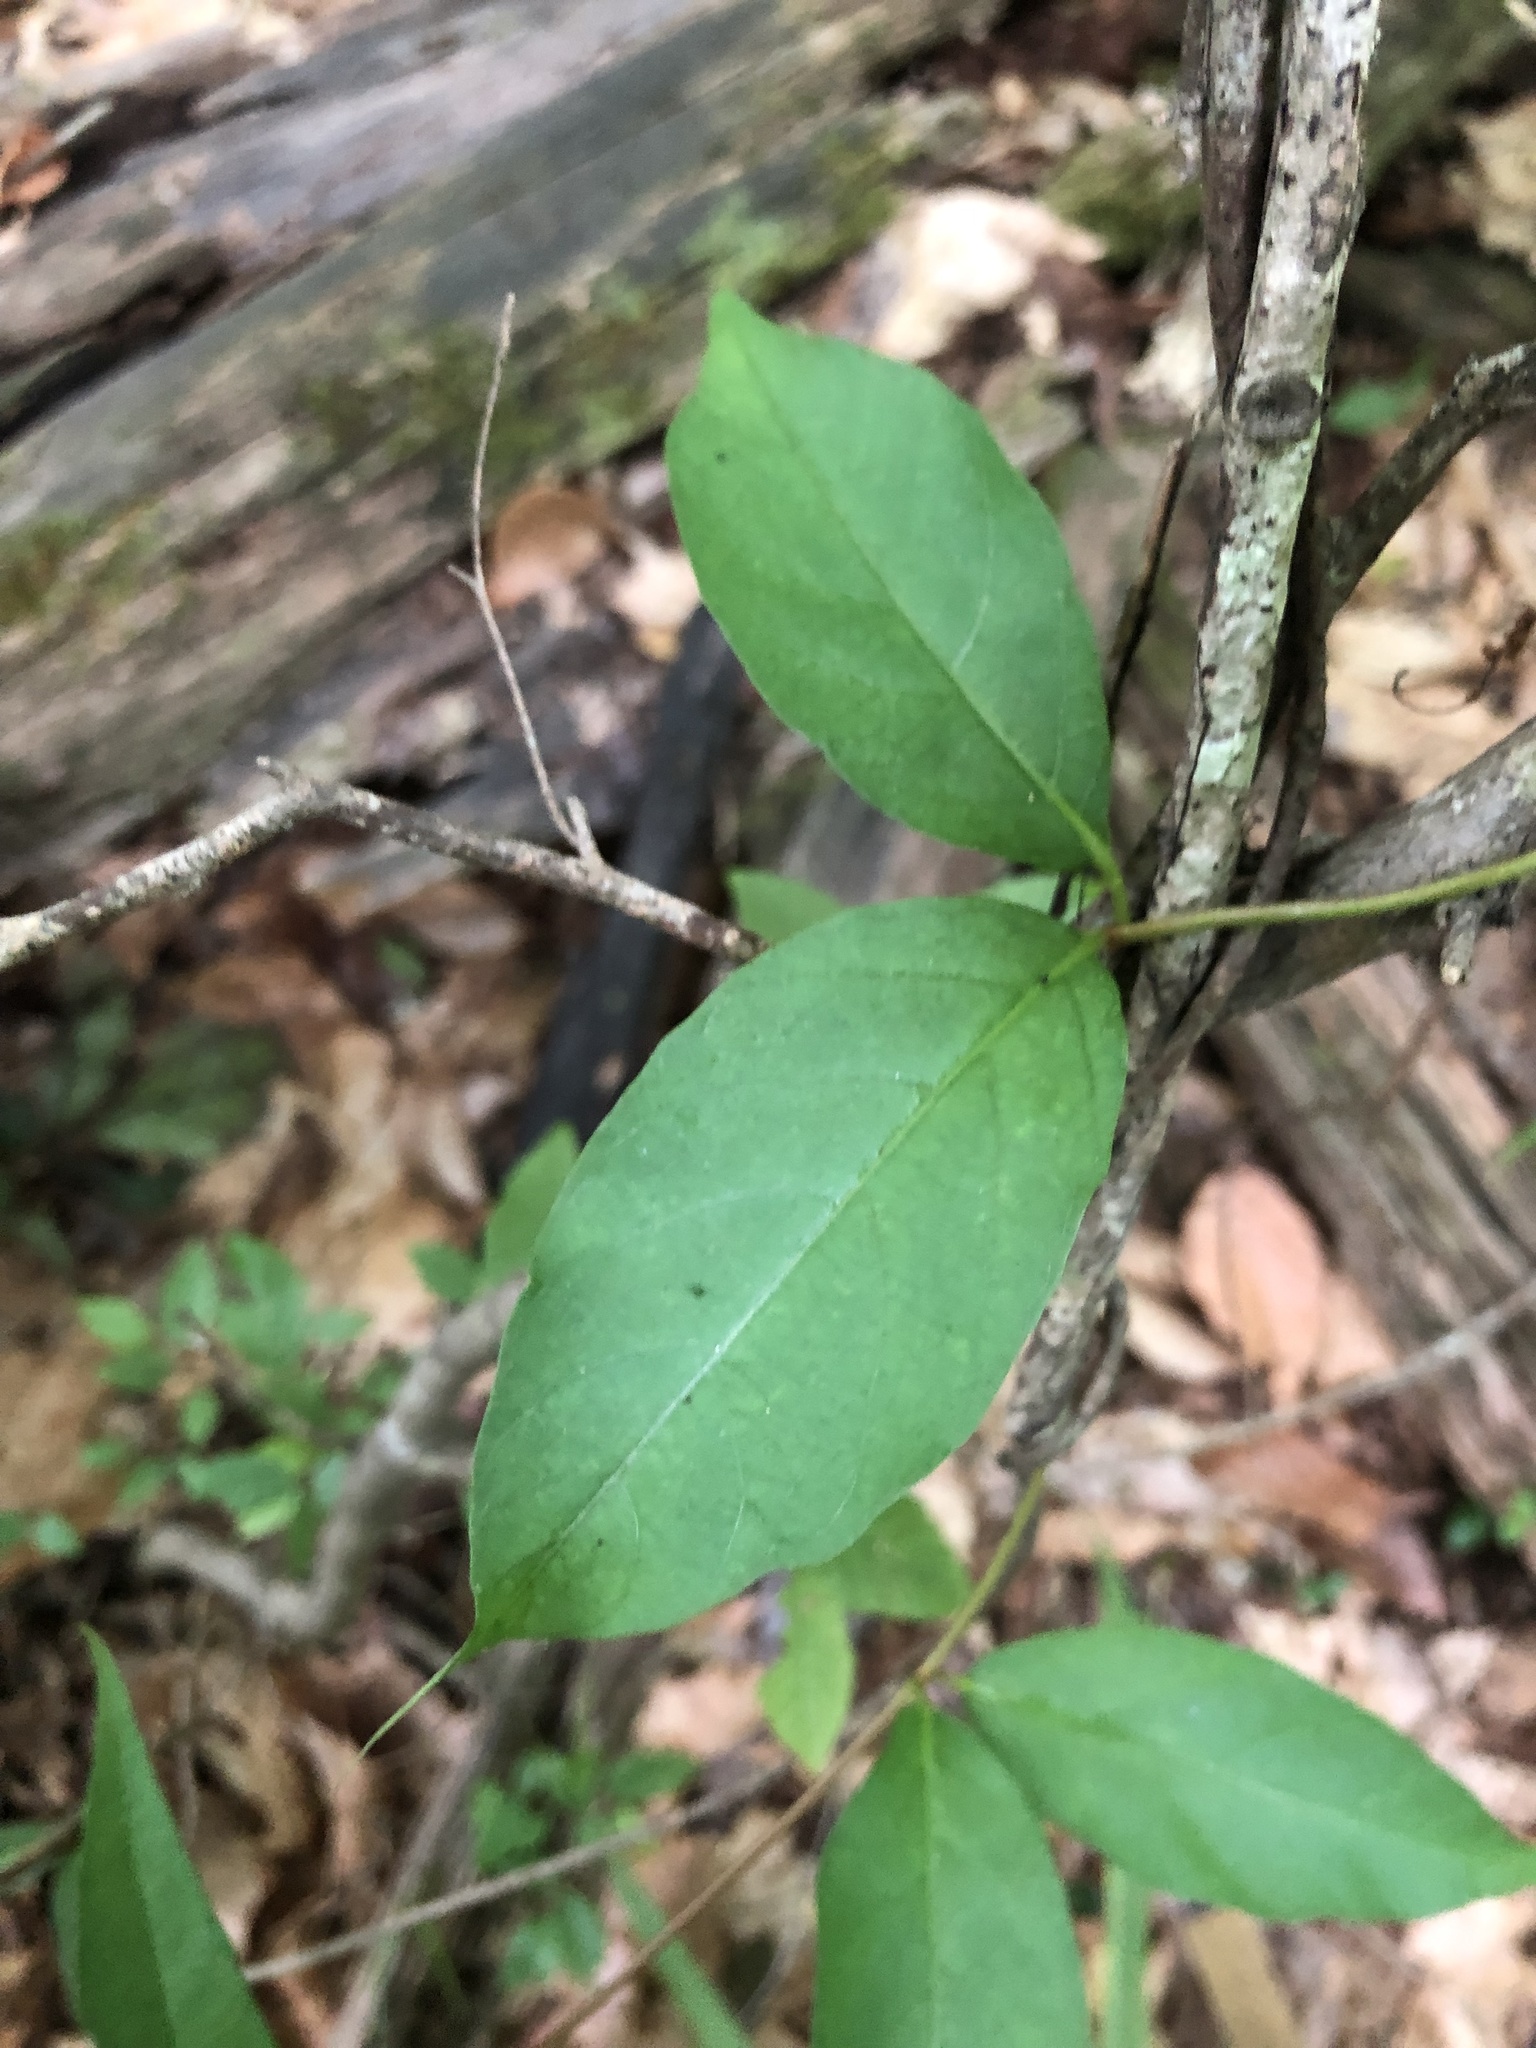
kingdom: Plantae
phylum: Tracheophyta
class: Magnoliopsida
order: Gentianales
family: Apocynaceae
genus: Thyrsanthella
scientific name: Thyrsanthella difformis
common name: Climbing dogbane
